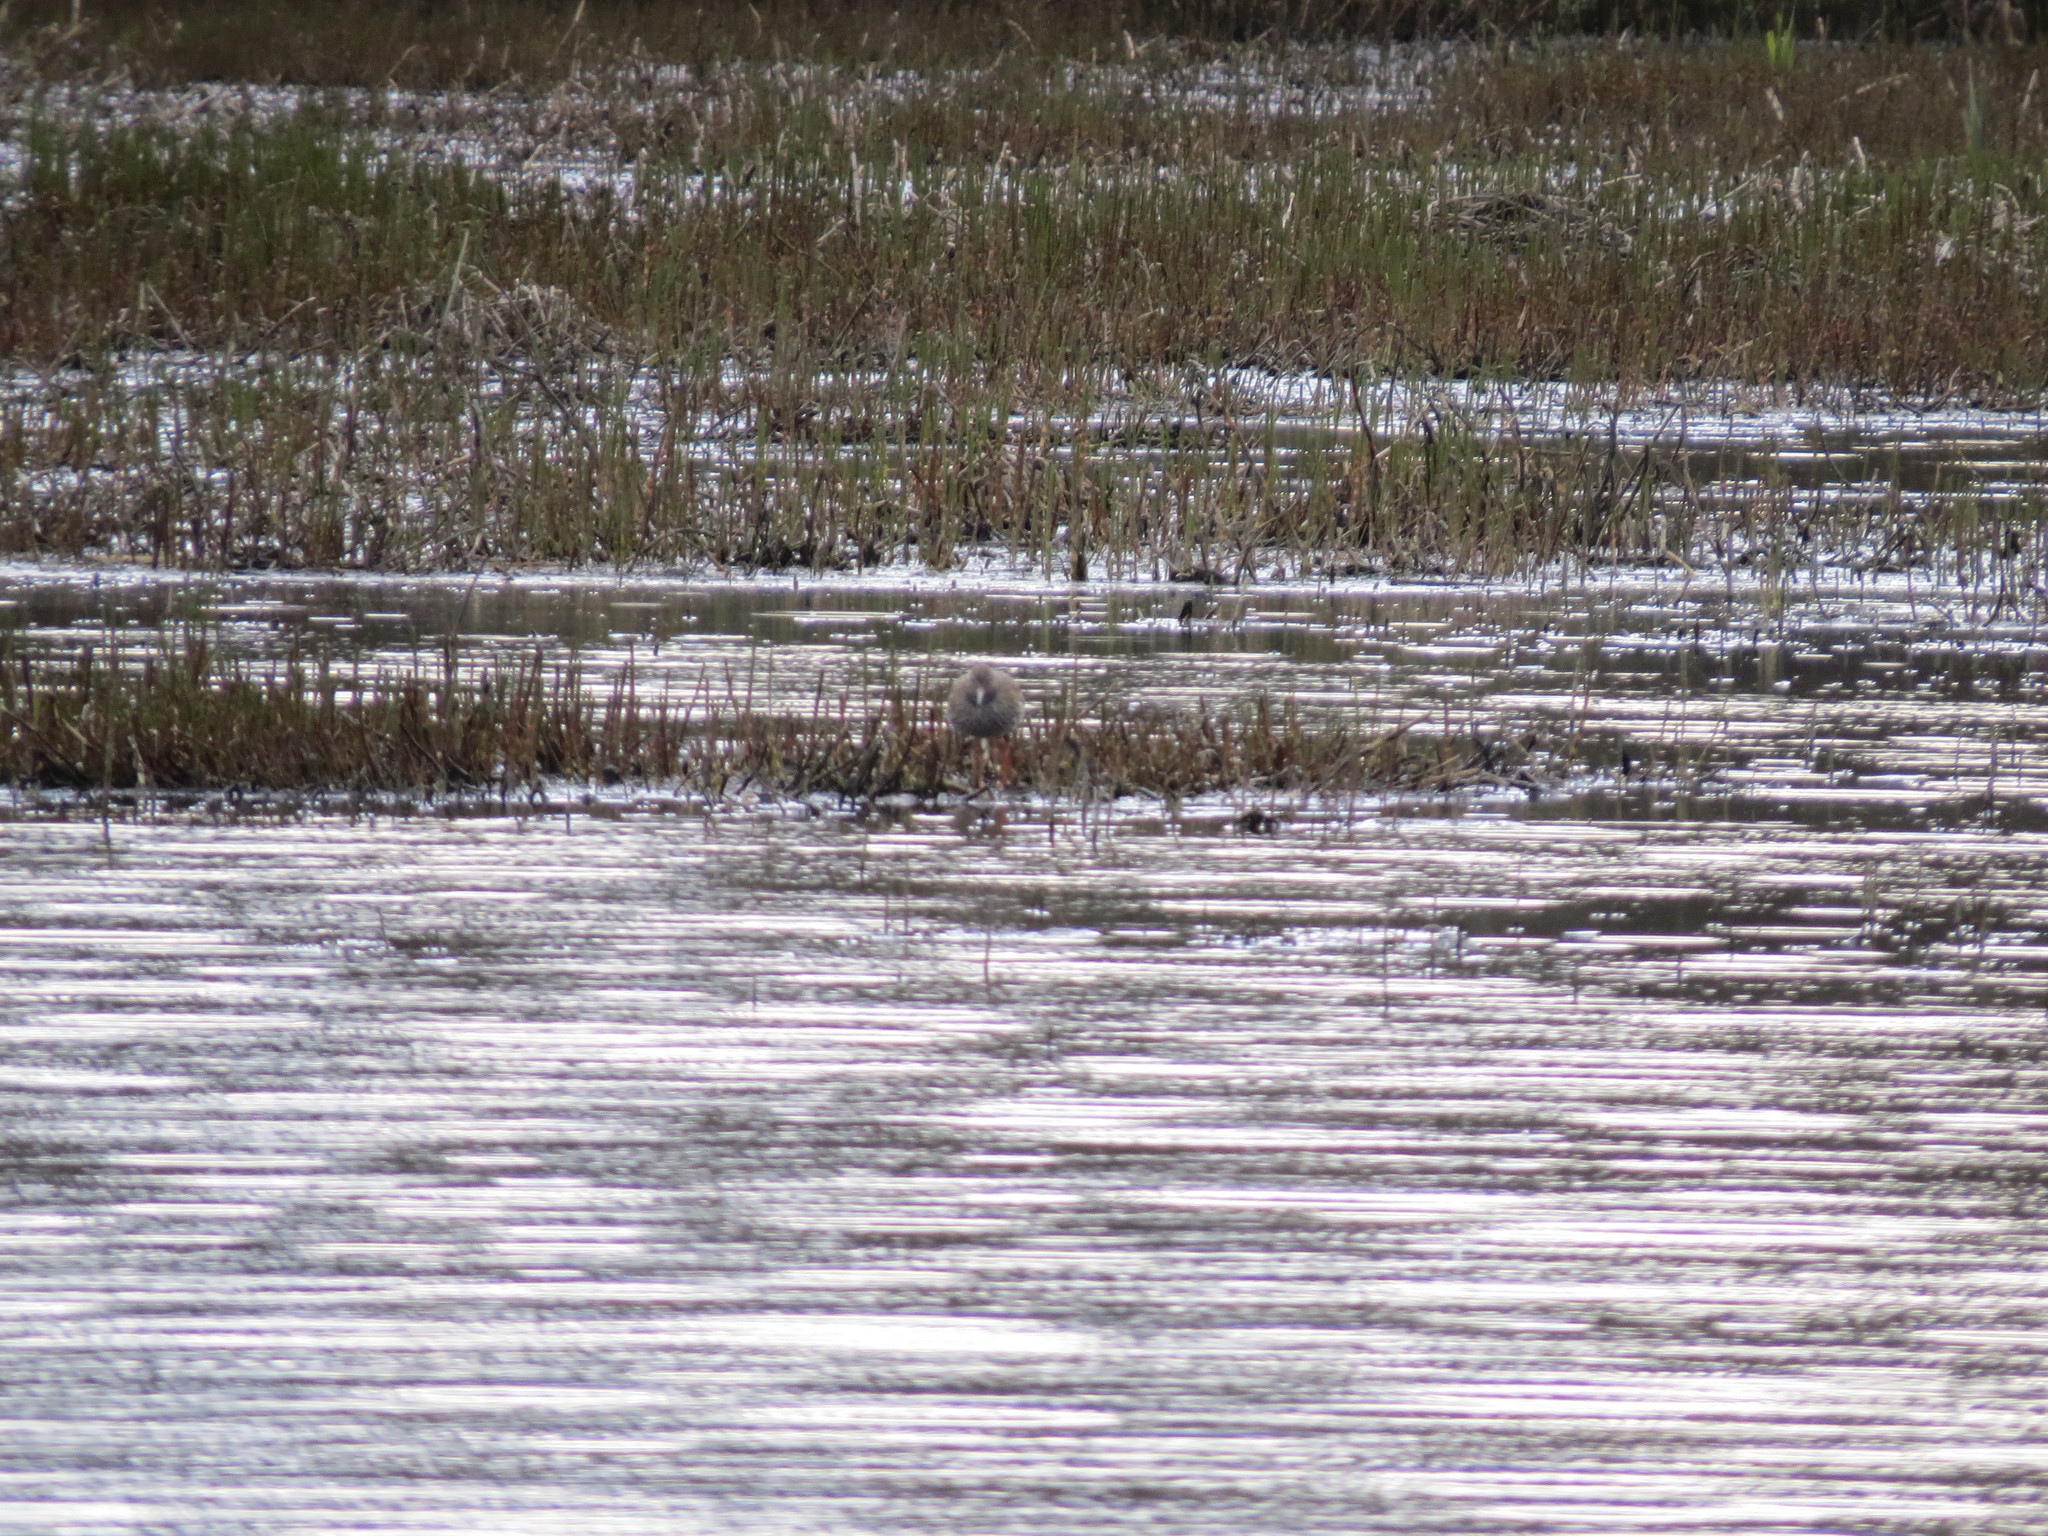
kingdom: Animalia
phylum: Chordata
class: Aves
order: Charadriiformes
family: Scolopacidae
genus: Tringa
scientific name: Tringa totanus
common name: Common redshank
